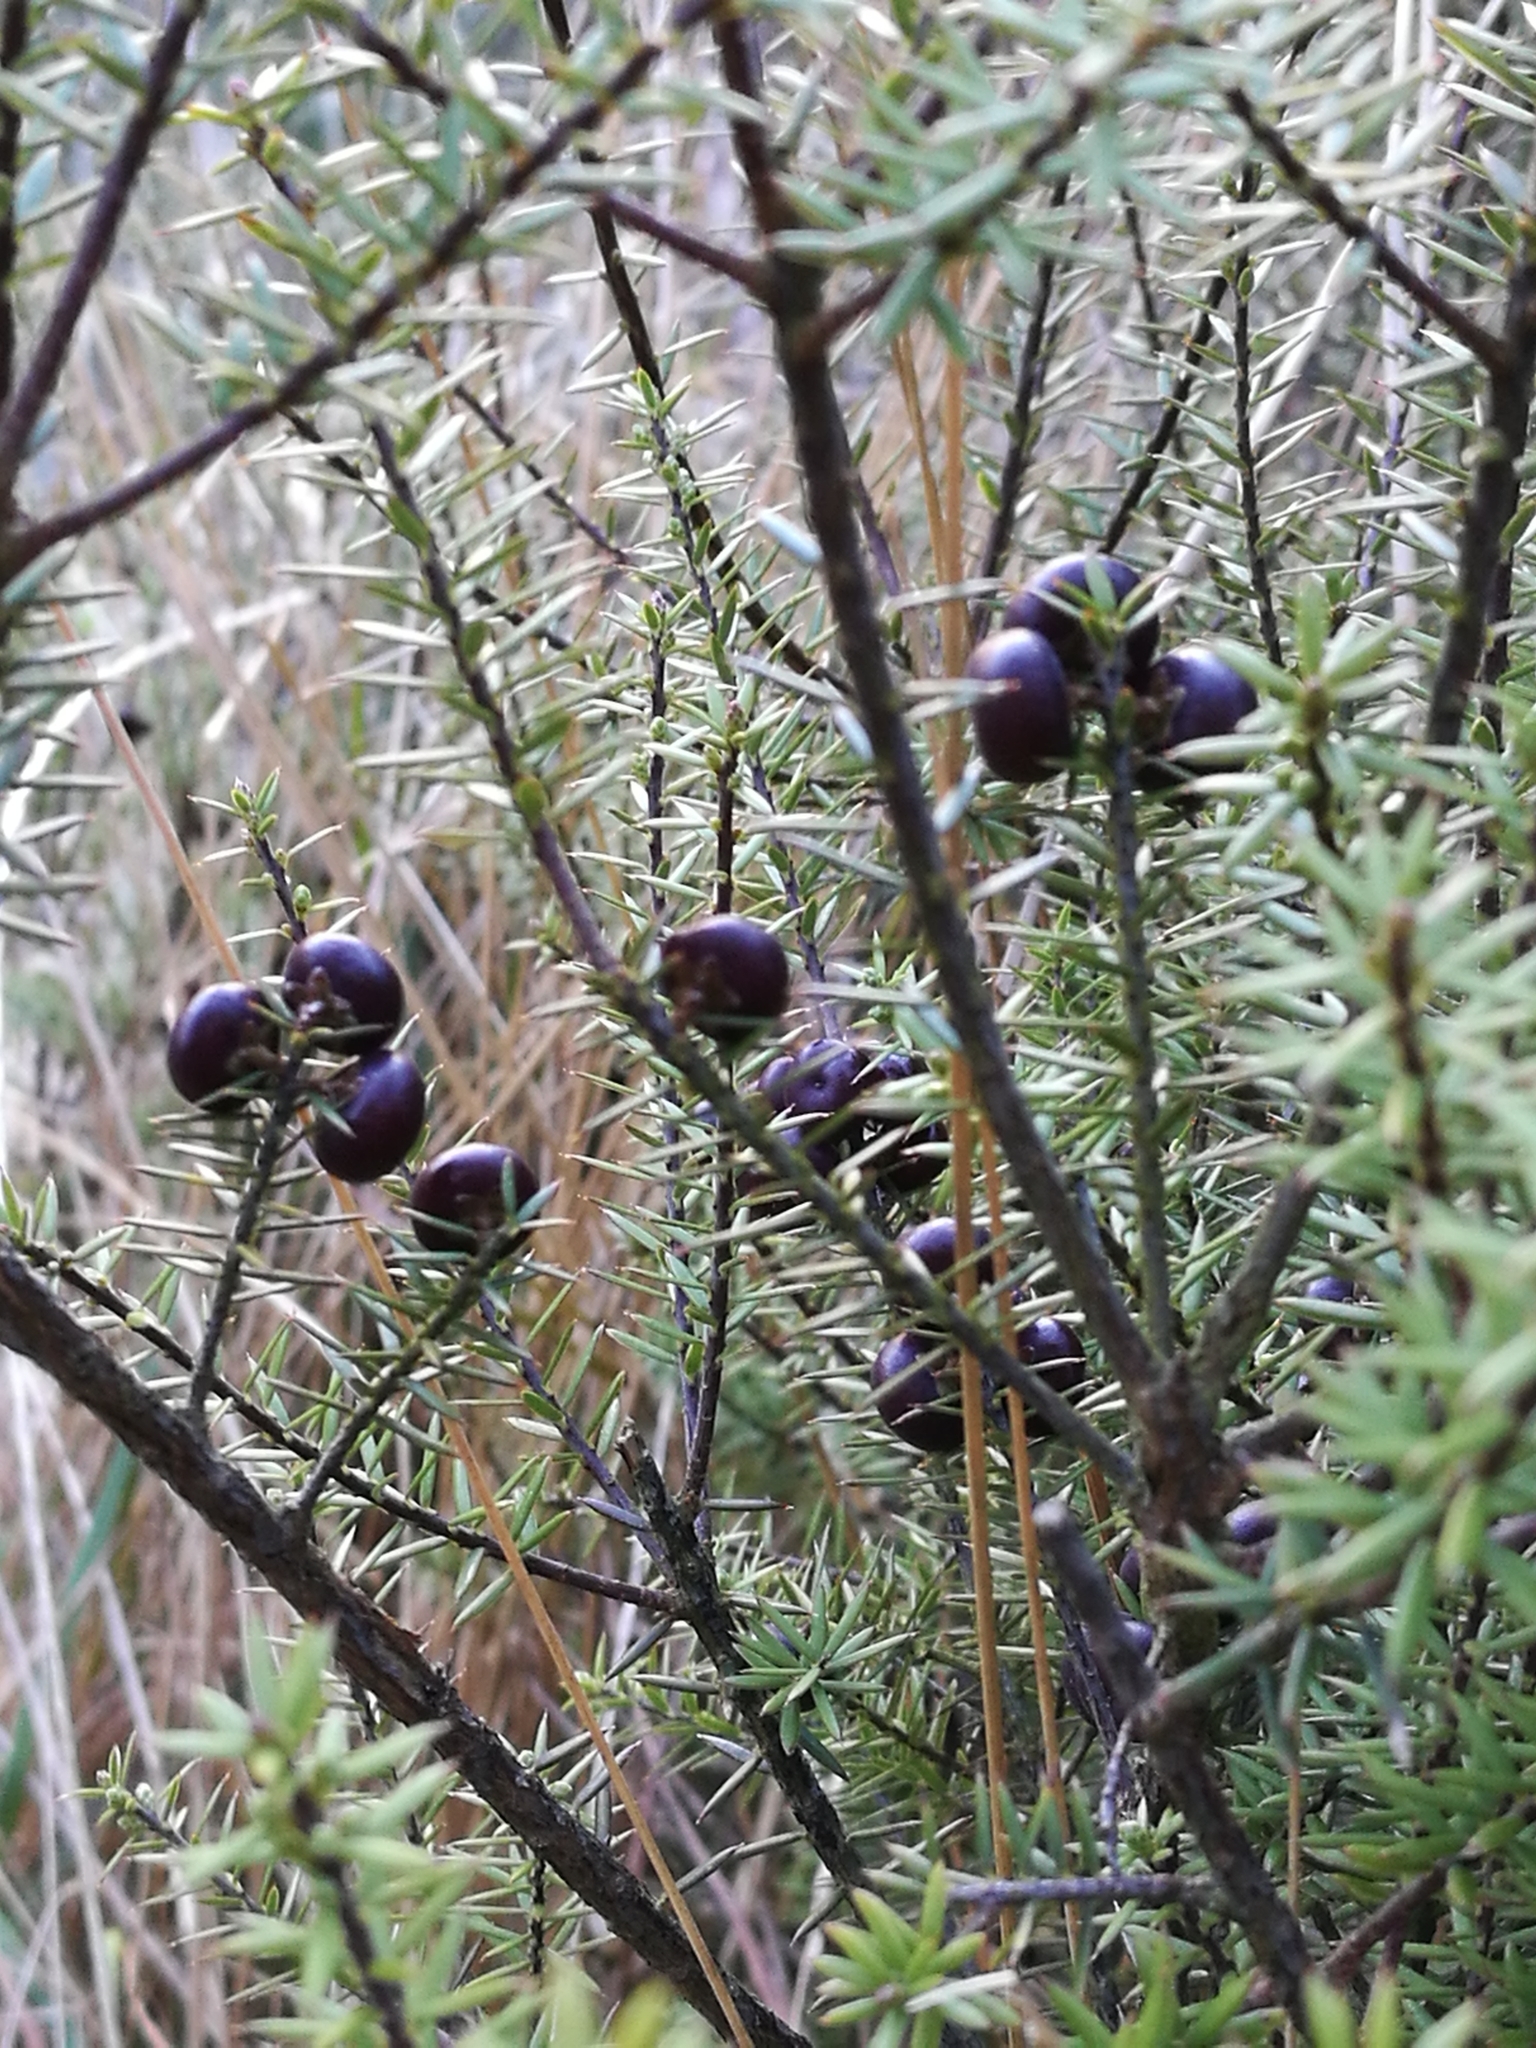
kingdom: Plantae
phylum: Tracheophyta
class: Magnoliopsida
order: Ericales
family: Ericaceae
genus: Leptecophylla
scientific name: Leptecophylla juniperina
